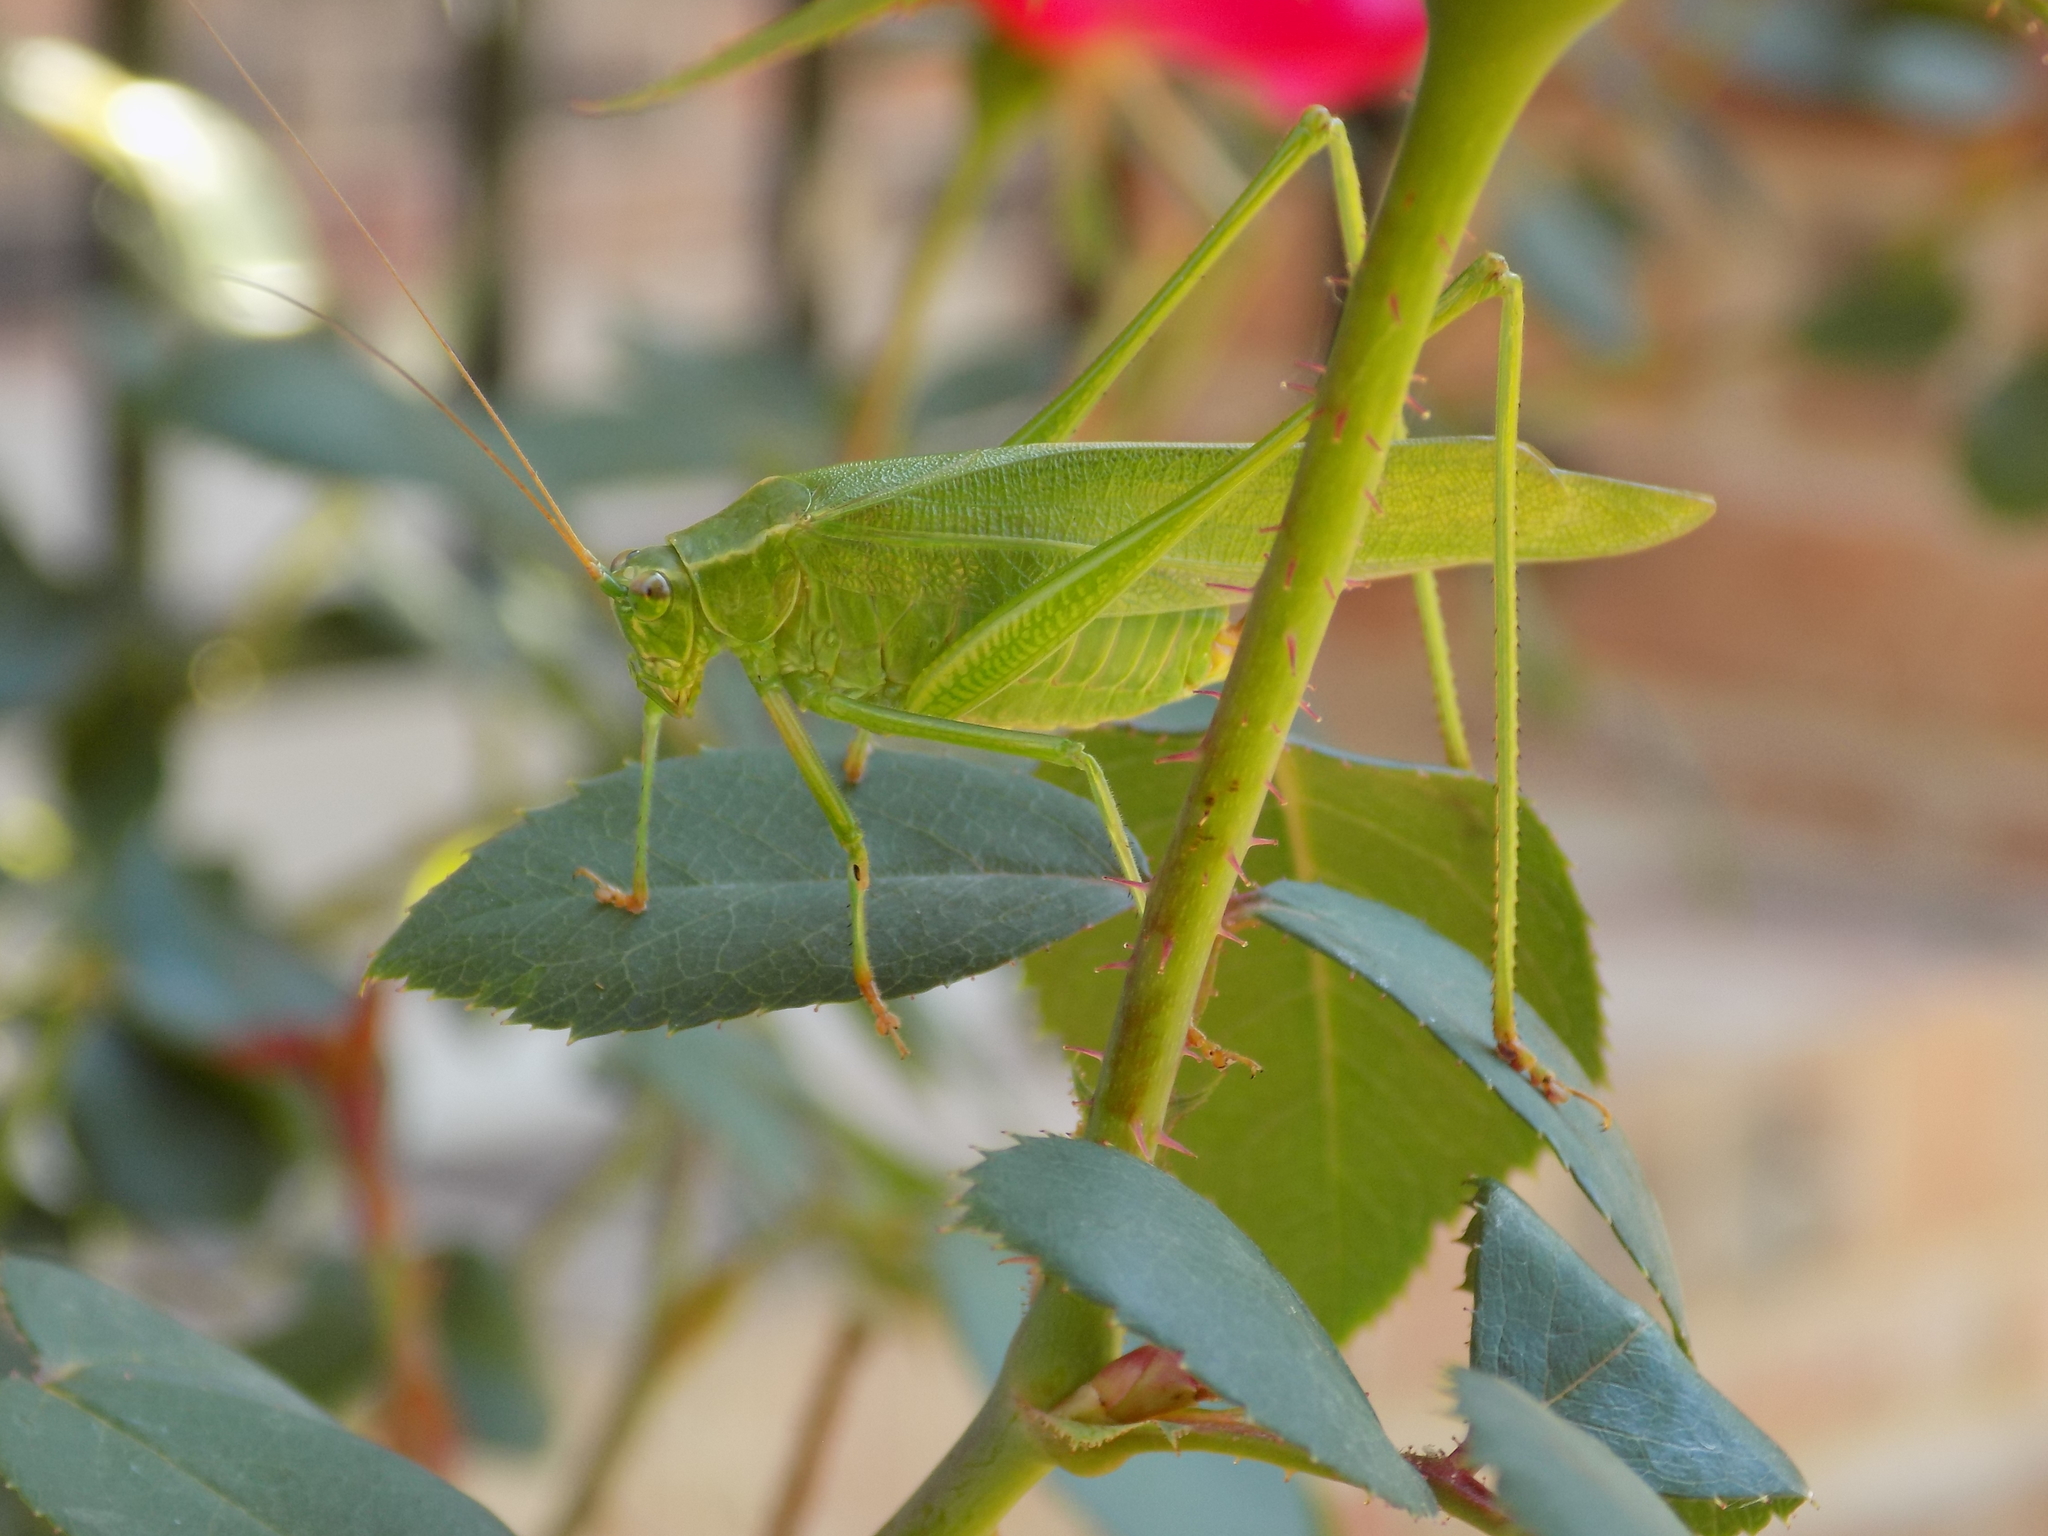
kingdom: Animalia
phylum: Arthropoda
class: Insecta
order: Orthoptera
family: Tettigoniidae
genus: Scudderia
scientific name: Scudderia furcata
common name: Fork-tailed bush katydid
